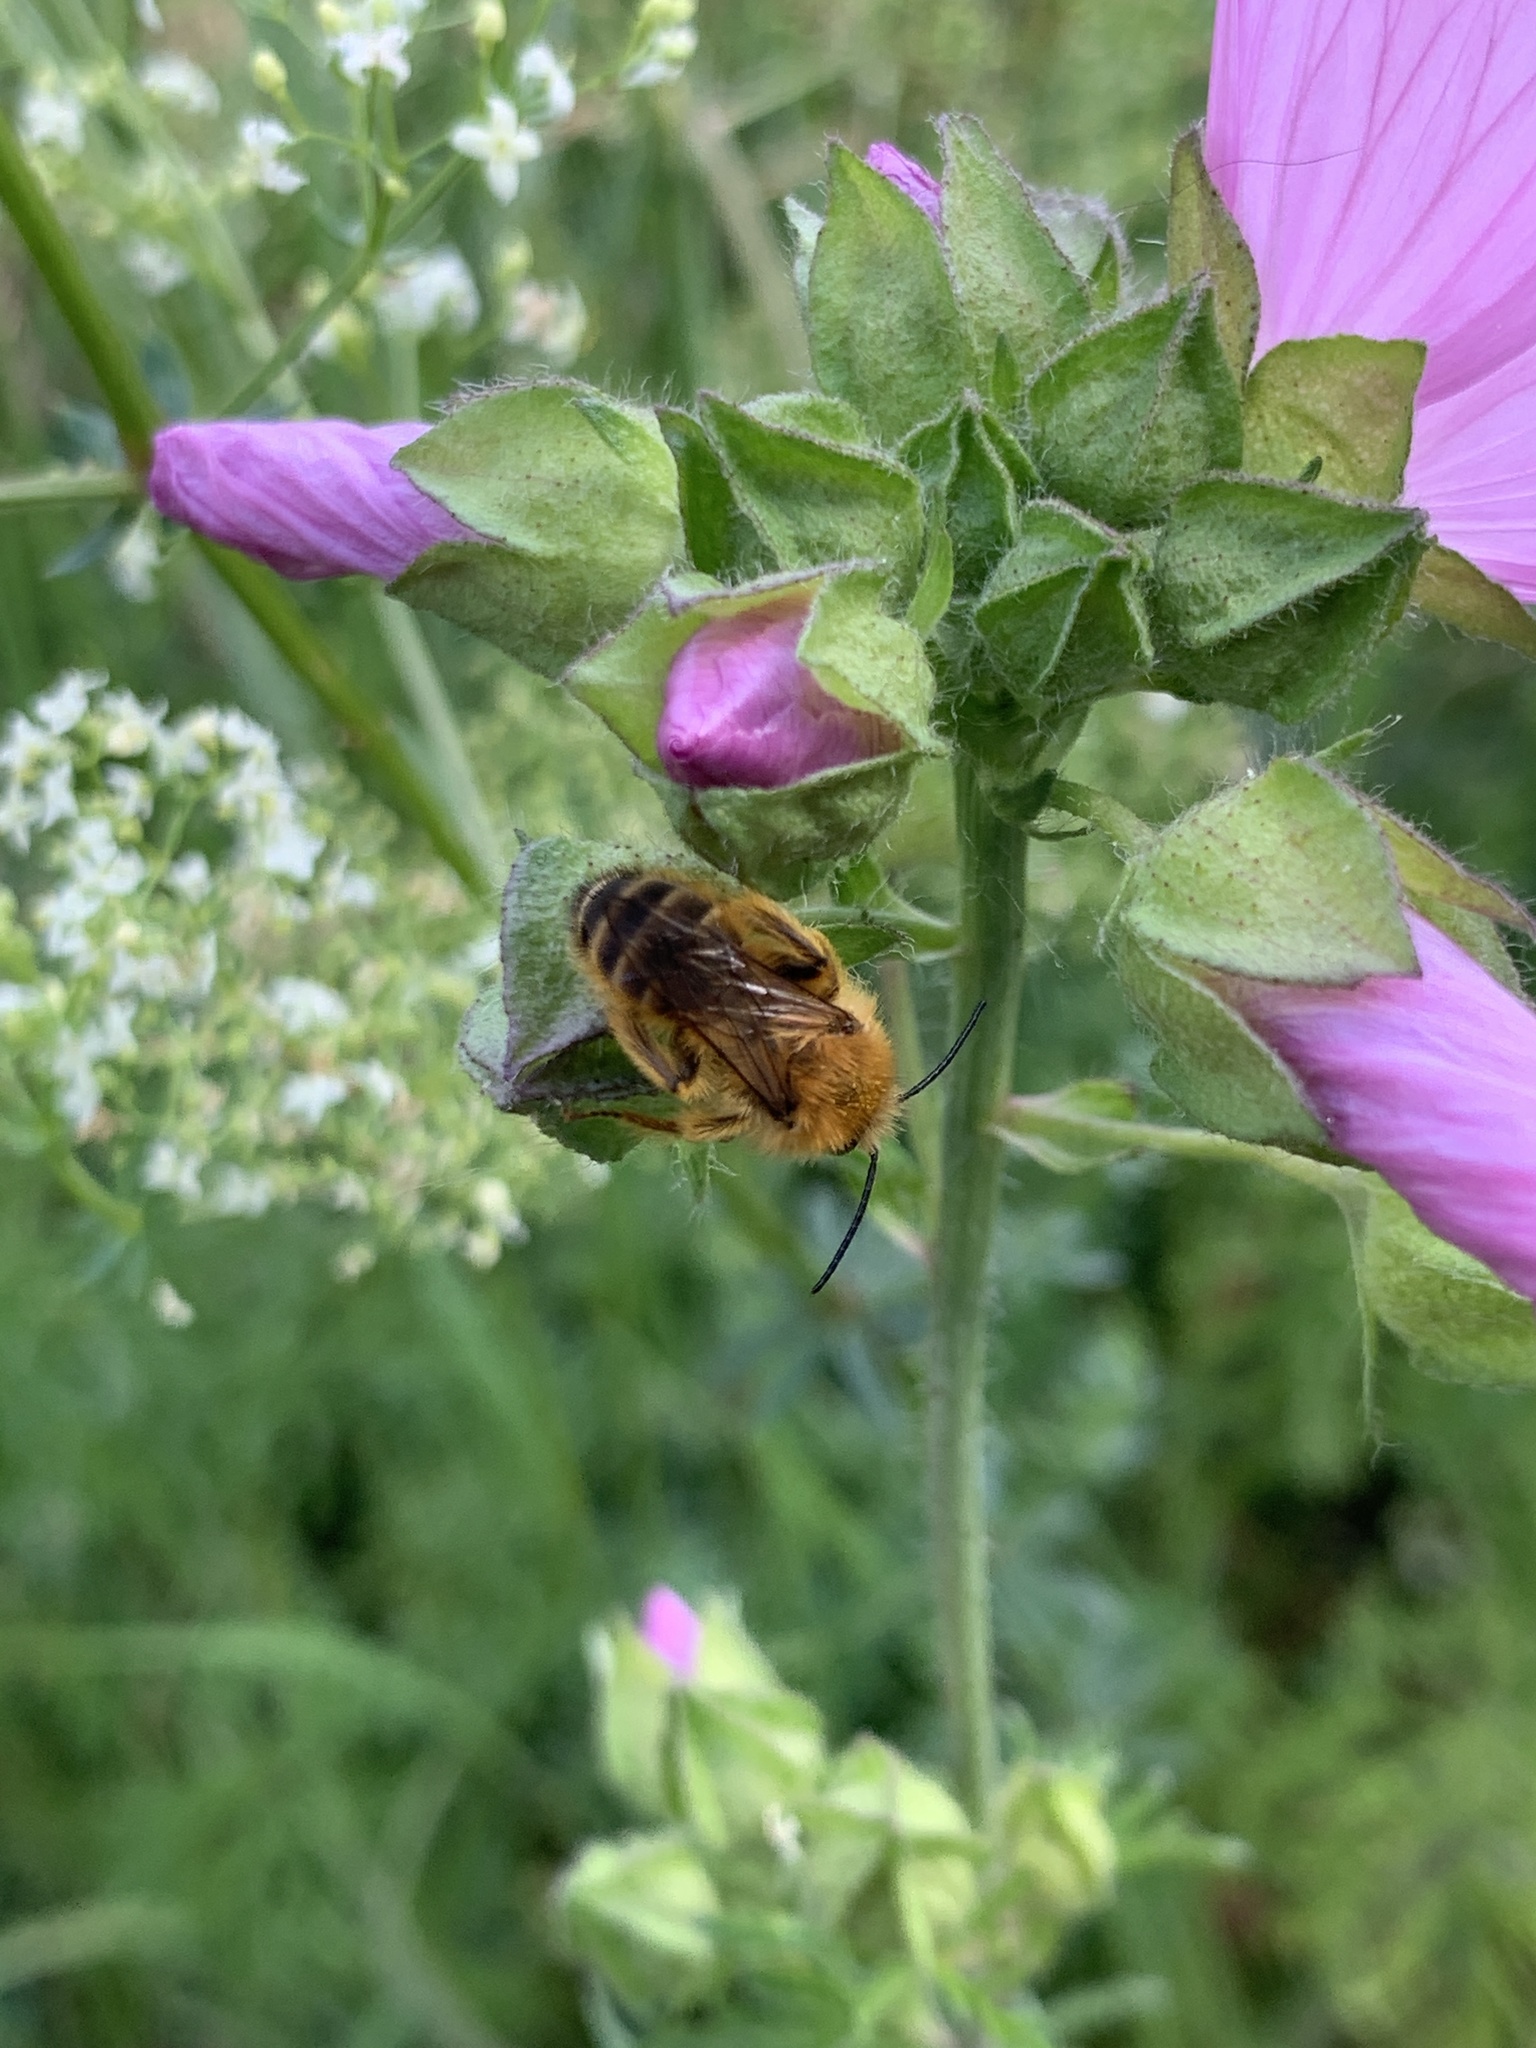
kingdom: Animalia
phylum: Arthropoda
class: Insecta
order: Hymenoptera
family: Melittidae
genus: Dasypoda
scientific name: Dasypoda hirtipes
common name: Pantaloon bee
